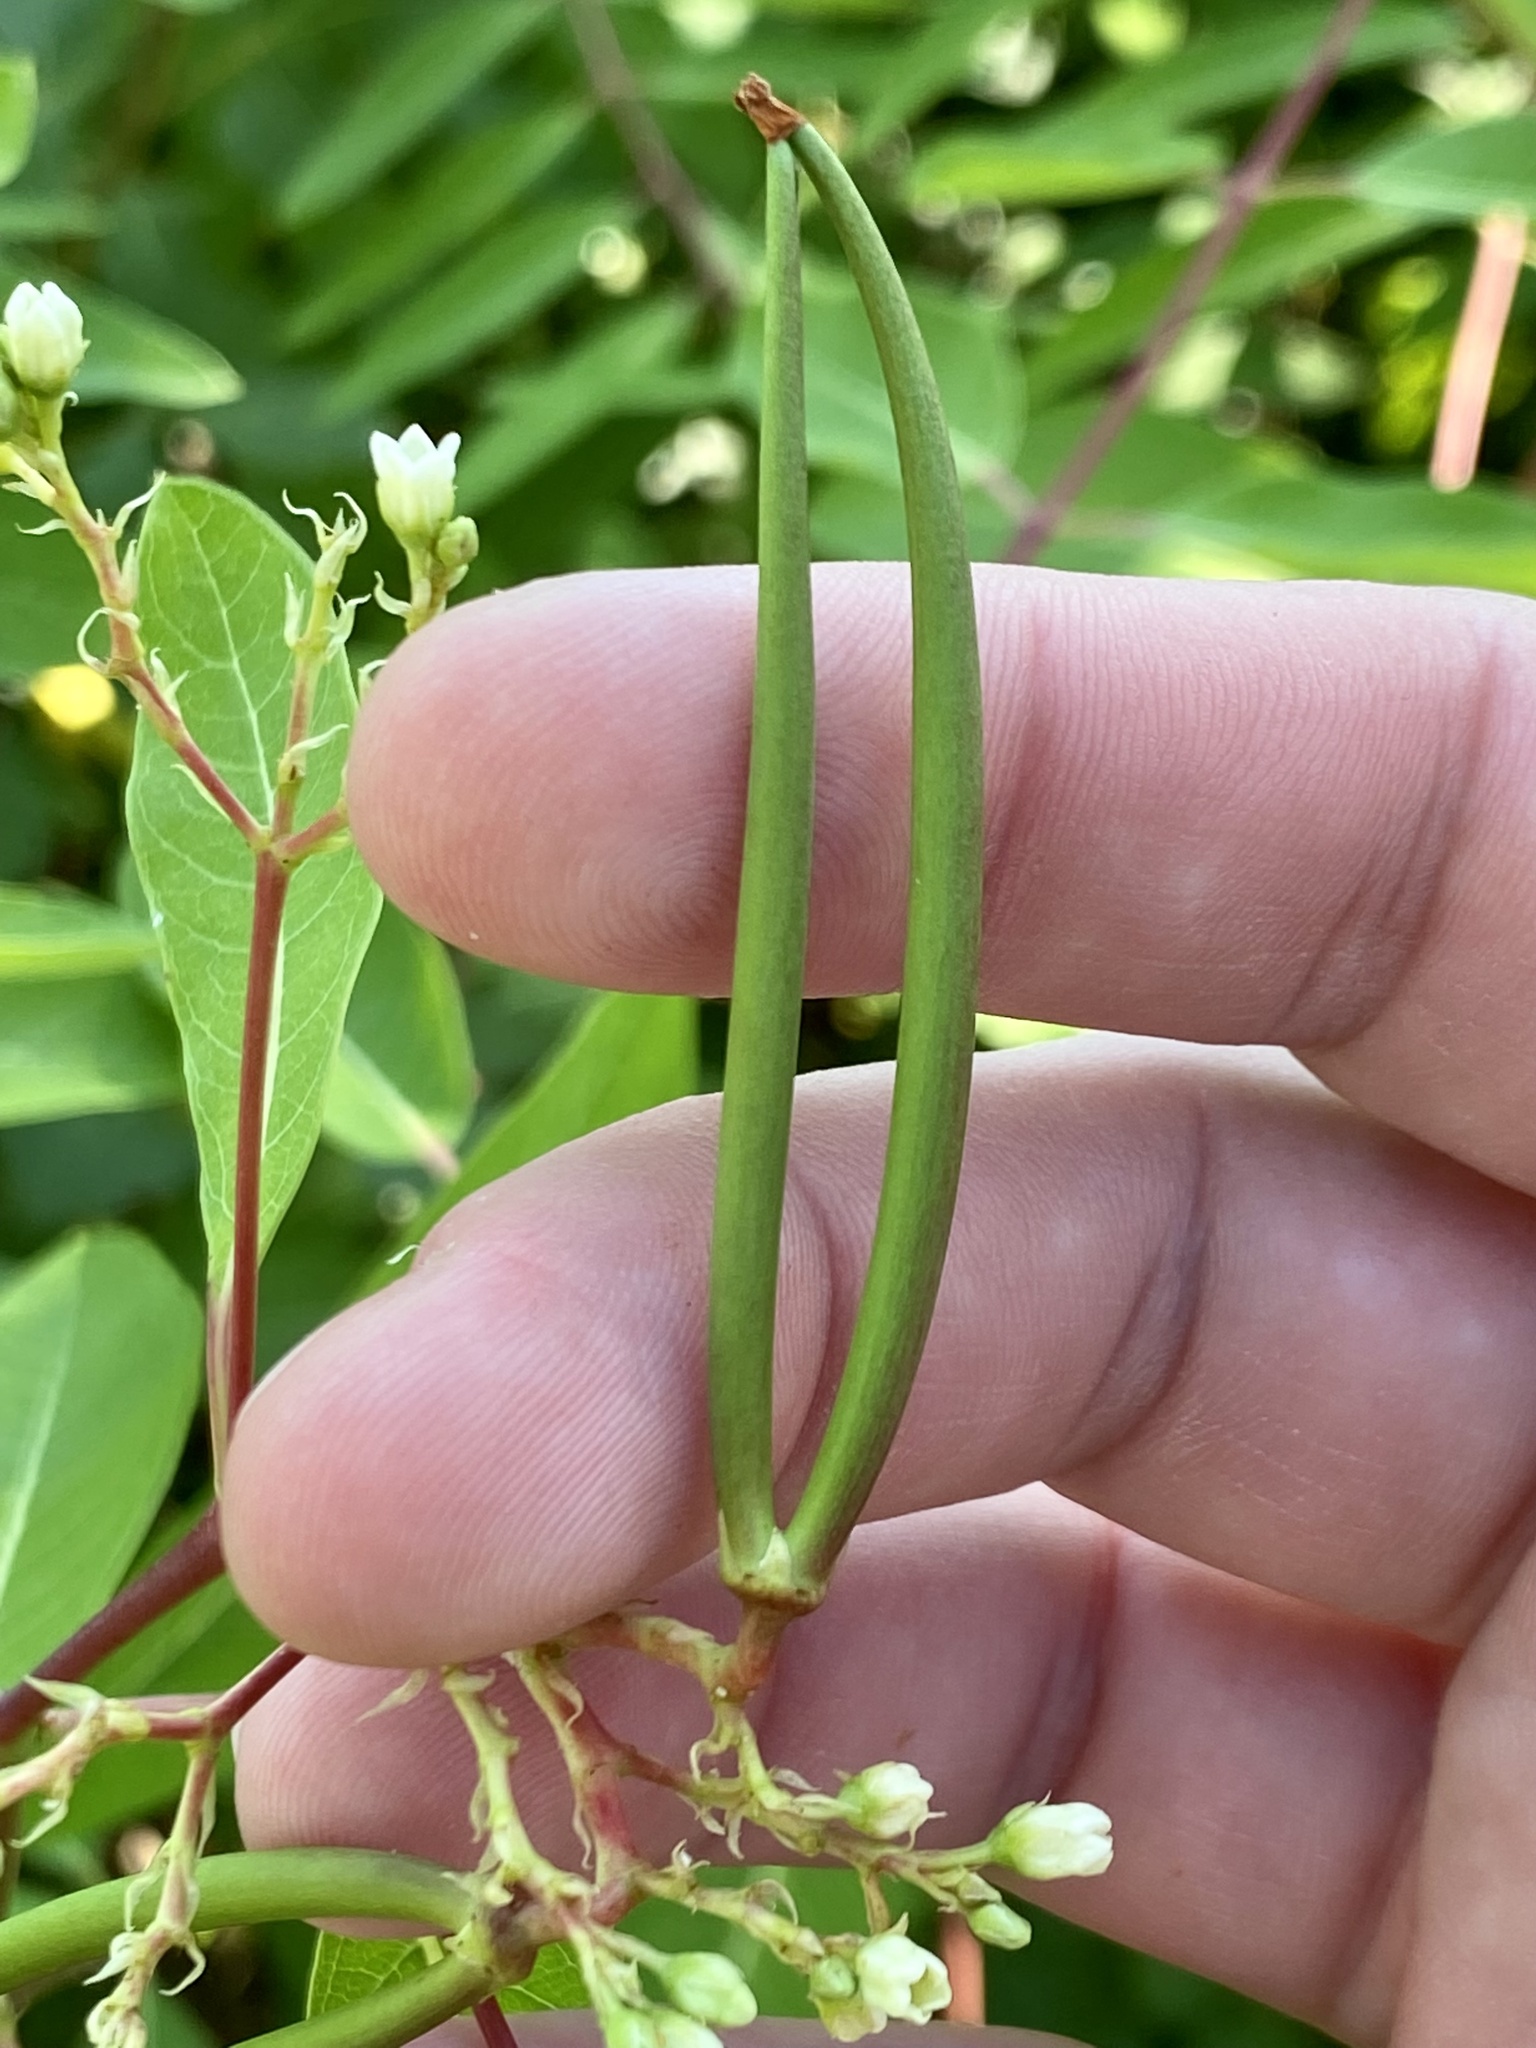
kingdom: Plantae
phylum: Tracheophyta
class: Magnoliopsida
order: Gentianales
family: Apocynaceae
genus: Apocynum
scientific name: Apocynum cannabinum
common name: Hemp dogbane
